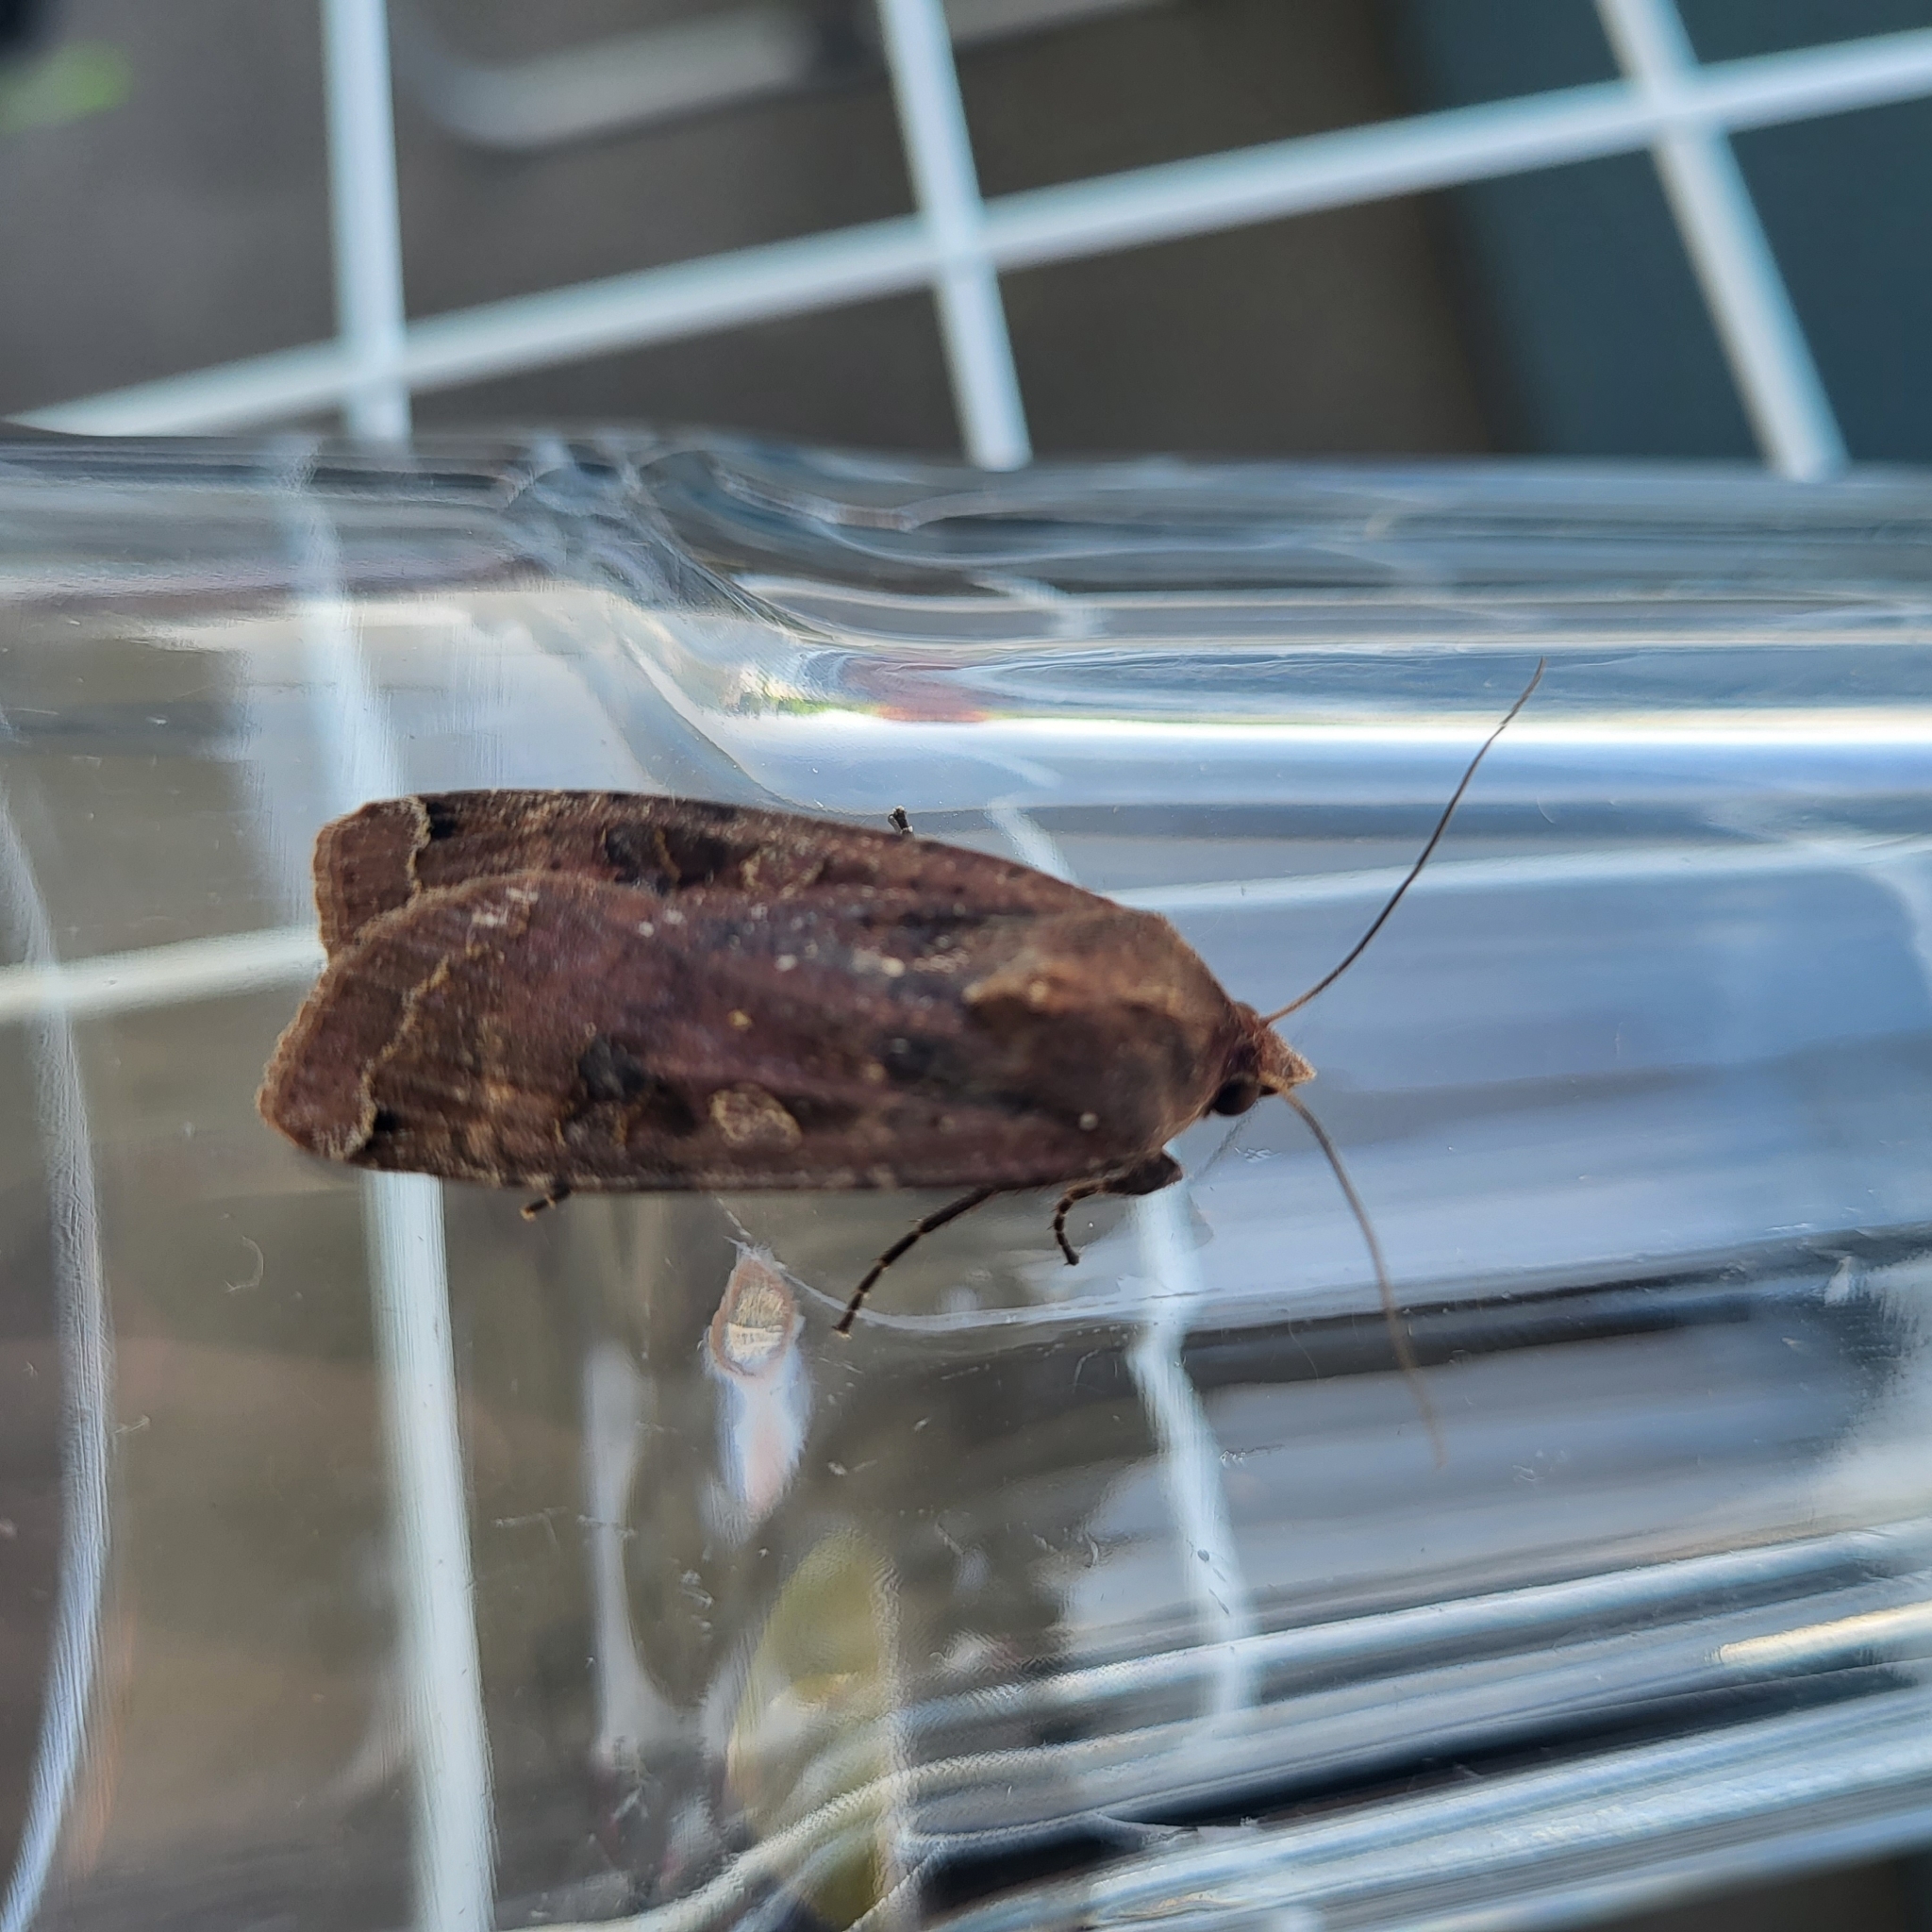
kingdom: Animalia
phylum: Arthropoda
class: Insecta
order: Lepidoptera
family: Noctuidae
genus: Noctua
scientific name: Noctua pronuba
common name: Large yellow underwing
